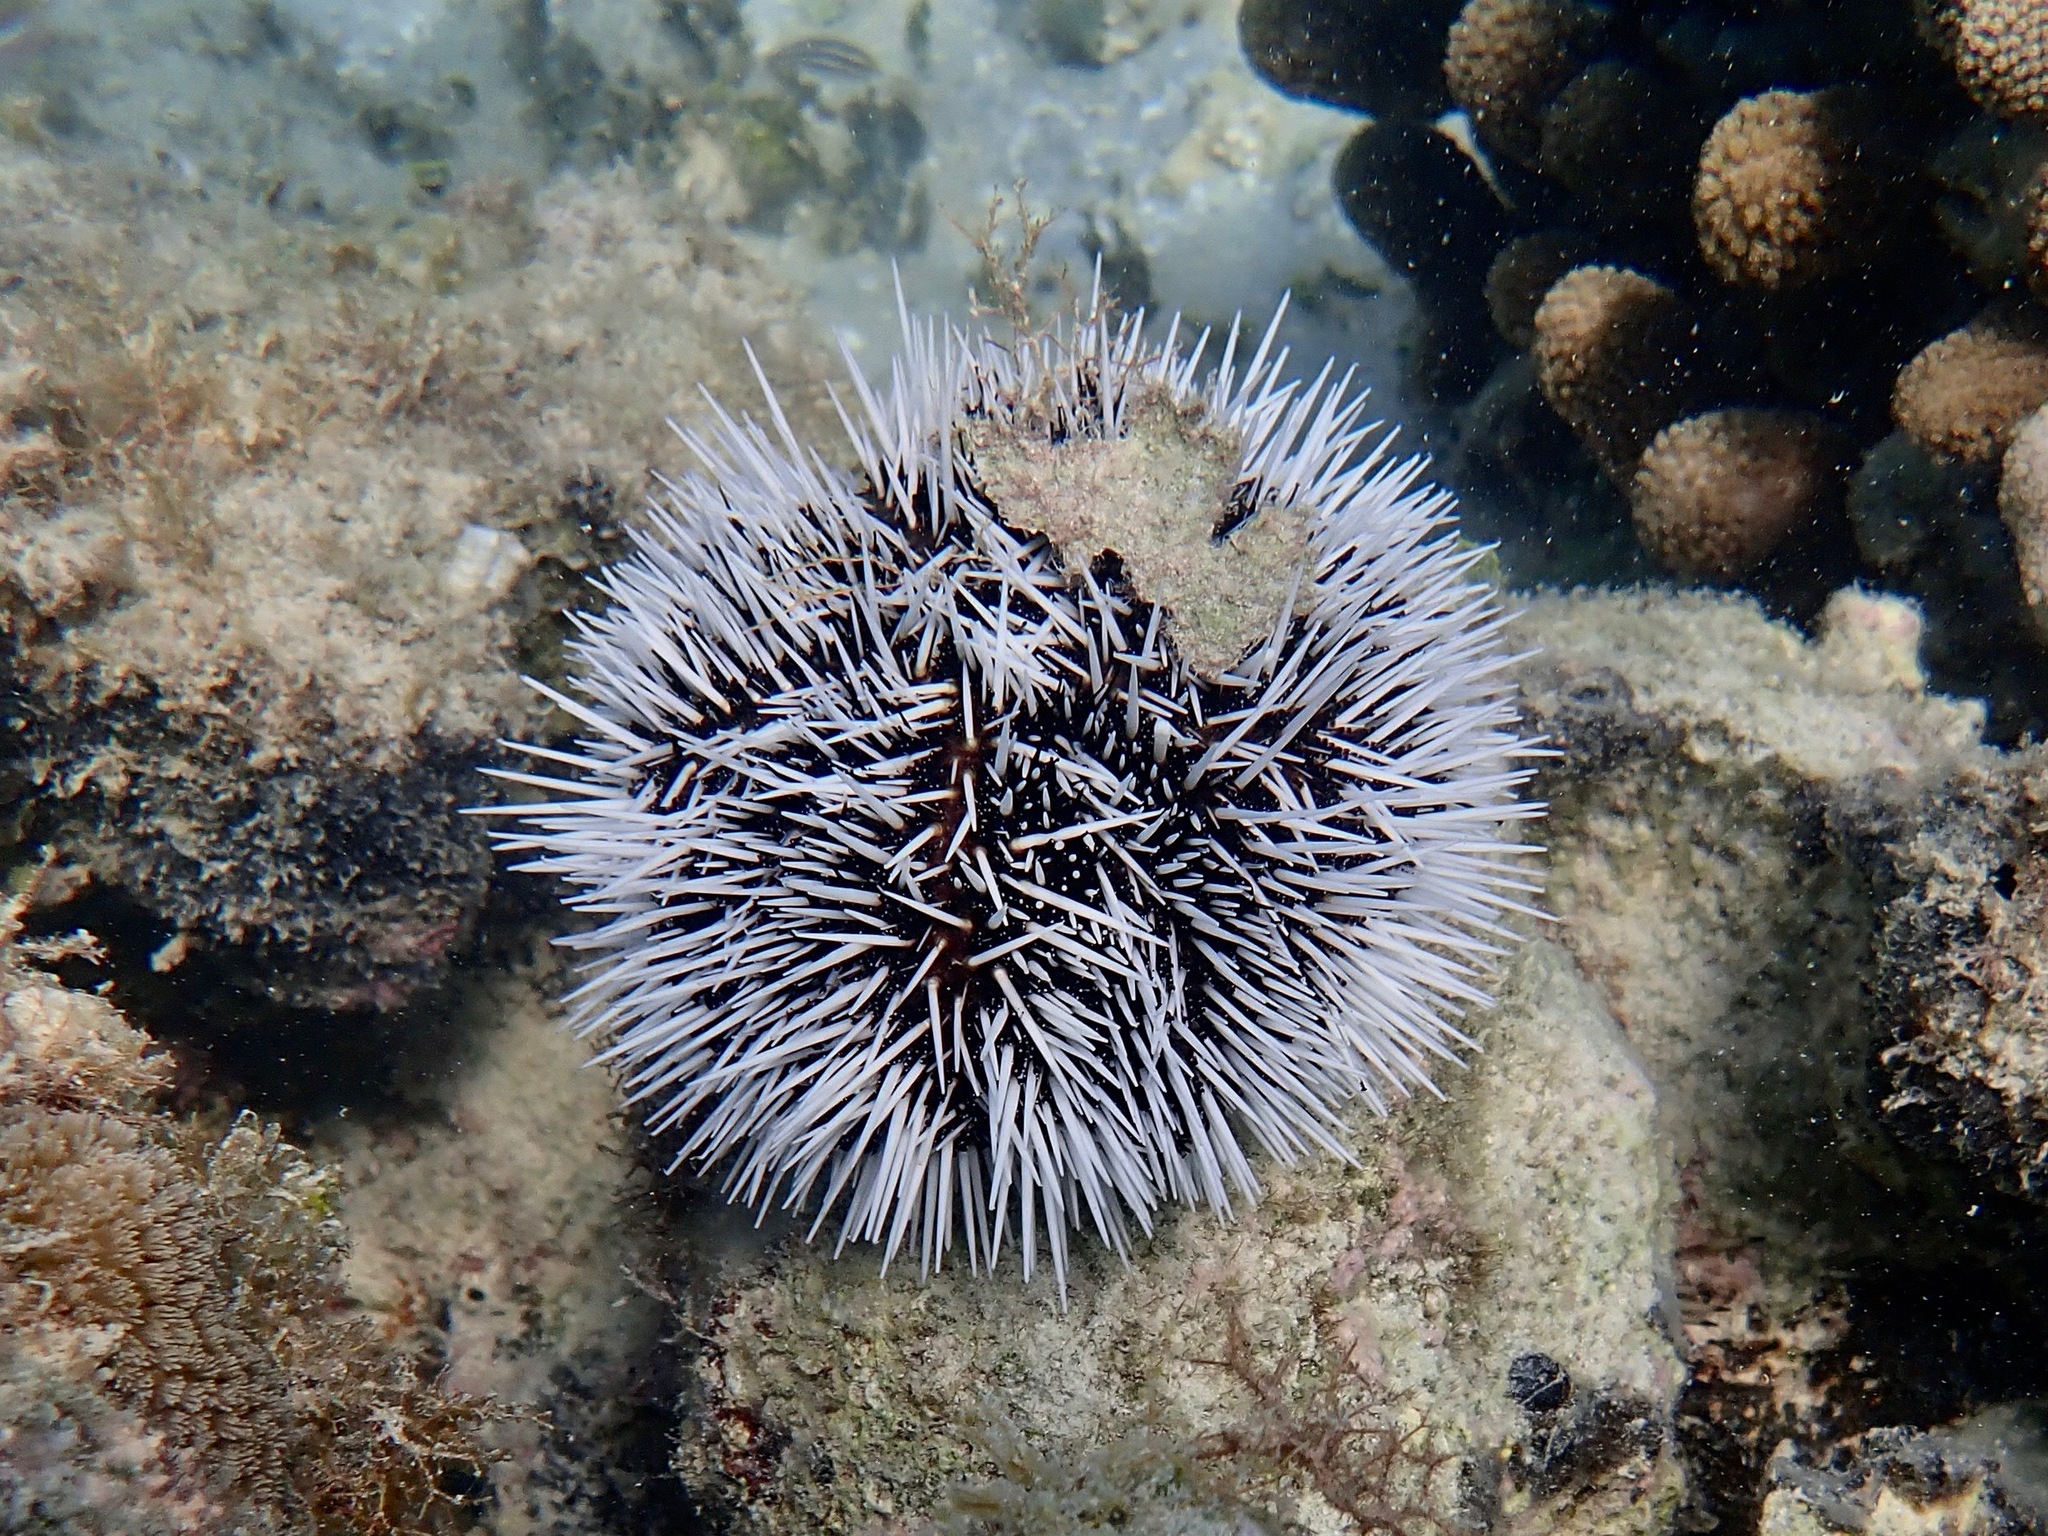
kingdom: Animalia
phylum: Echinodermata
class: Echinoidea
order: Camarodonta
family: Toxopneustidae
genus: Tripneustes
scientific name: Tripneustes ventricosus
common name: West indian sea egg
